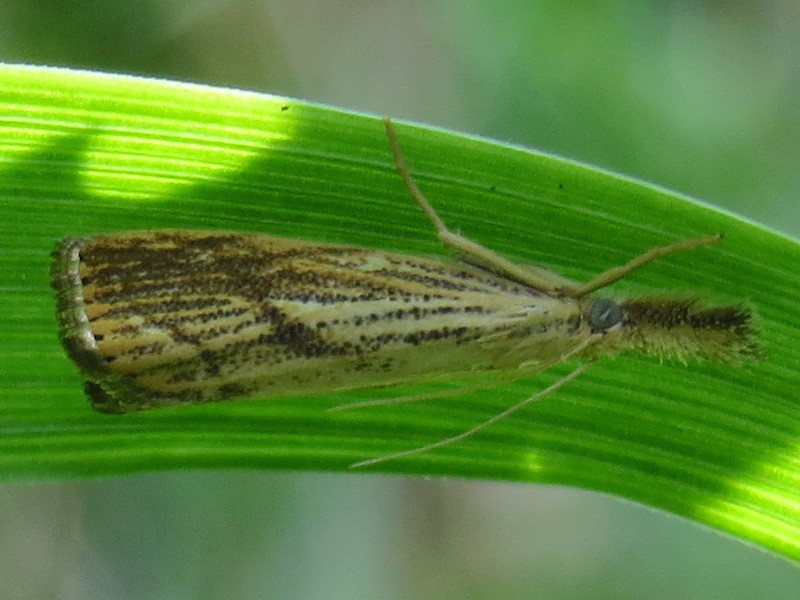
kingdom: Animalia
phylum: Arthropoda
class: Insecta
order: Lepidoptera
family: Crambidae
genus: Agriphila
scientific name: Agriphila ruricolellus
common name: Lesser vagabond sod webworm
